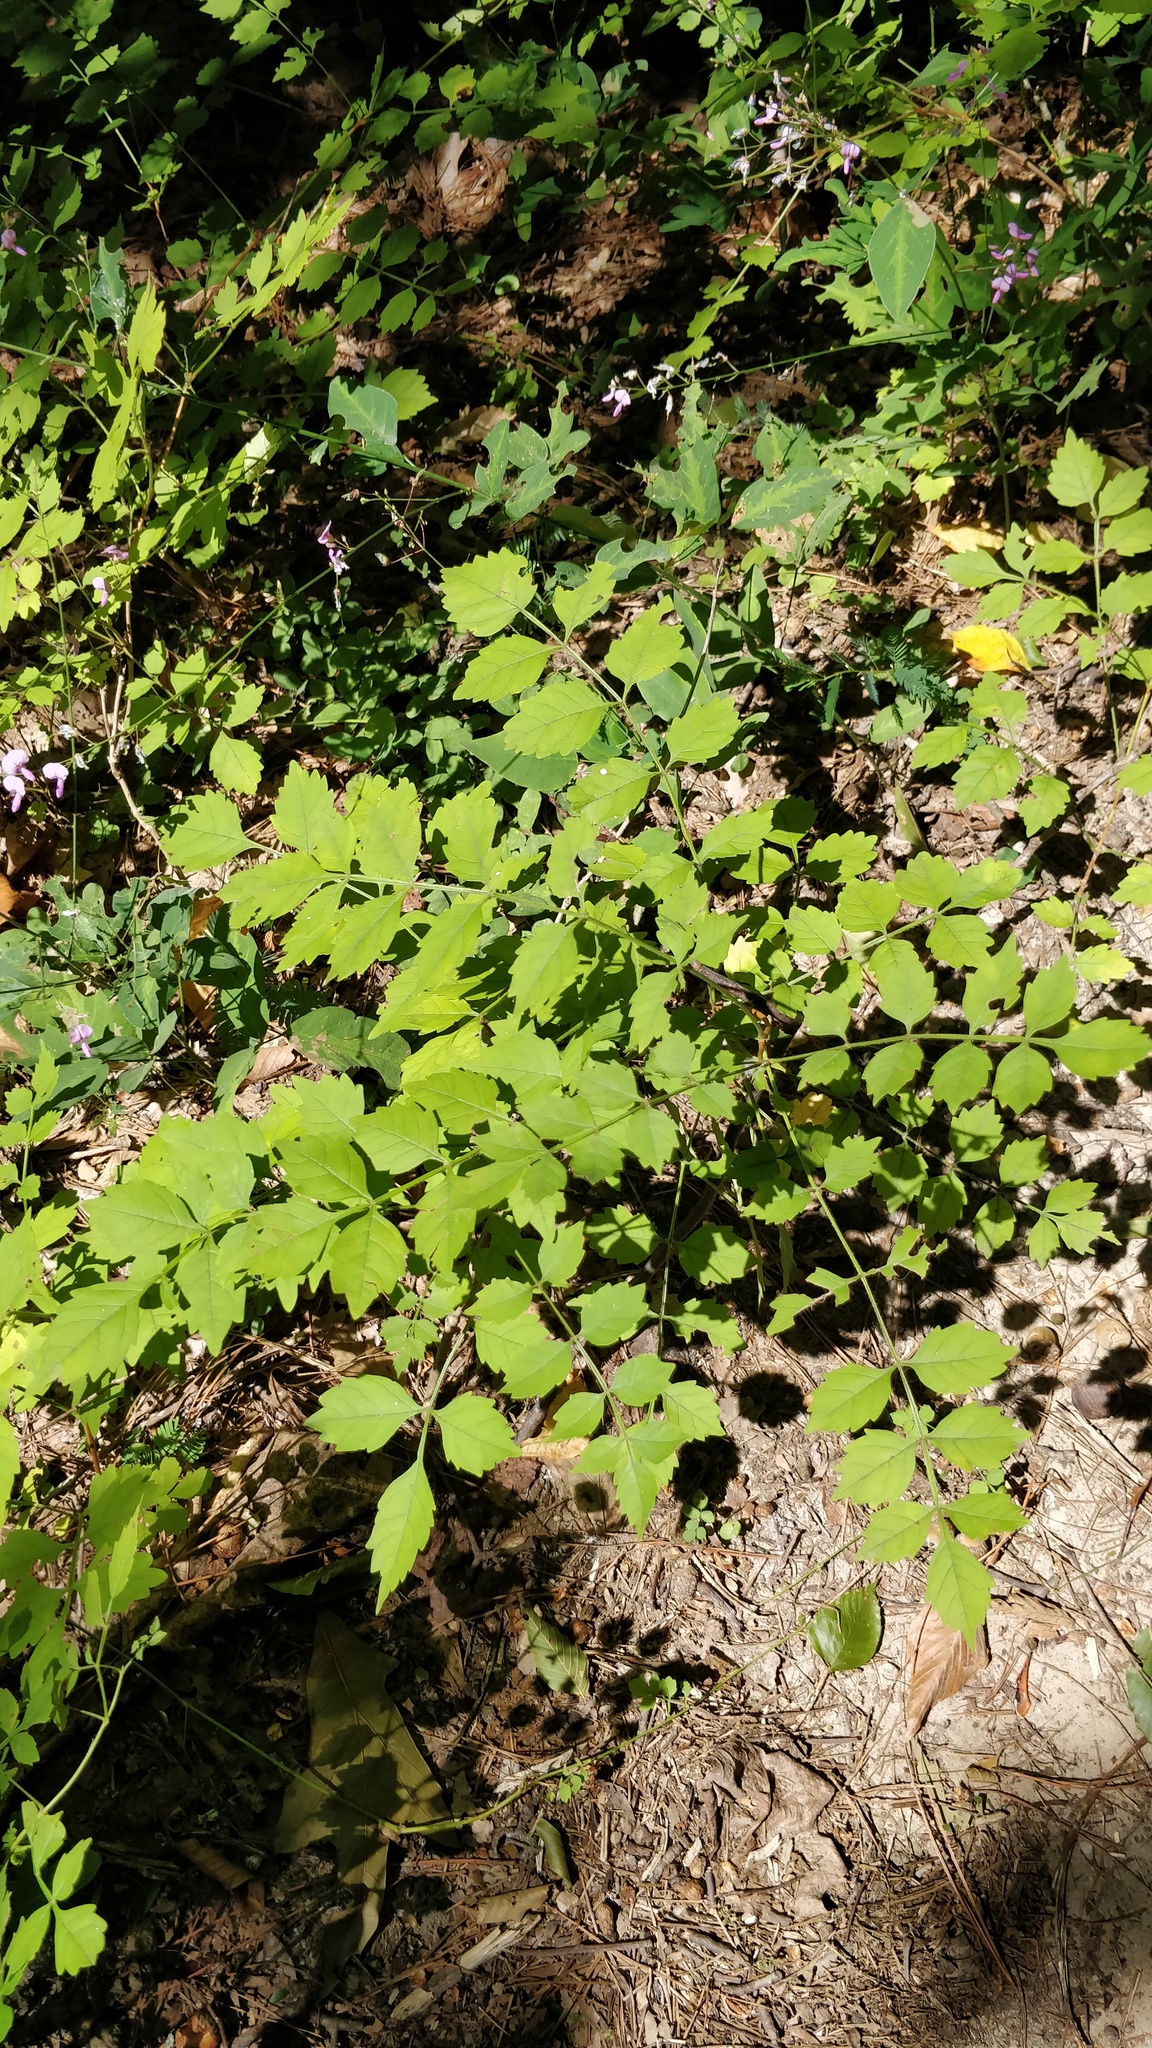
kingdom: Plantae
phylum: Tracheophyta
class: Magnoliopsida
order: Lamiales
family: Bignoniaceae
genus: Campsis
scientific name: Campsis radicans
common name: Trumpet-creeper
